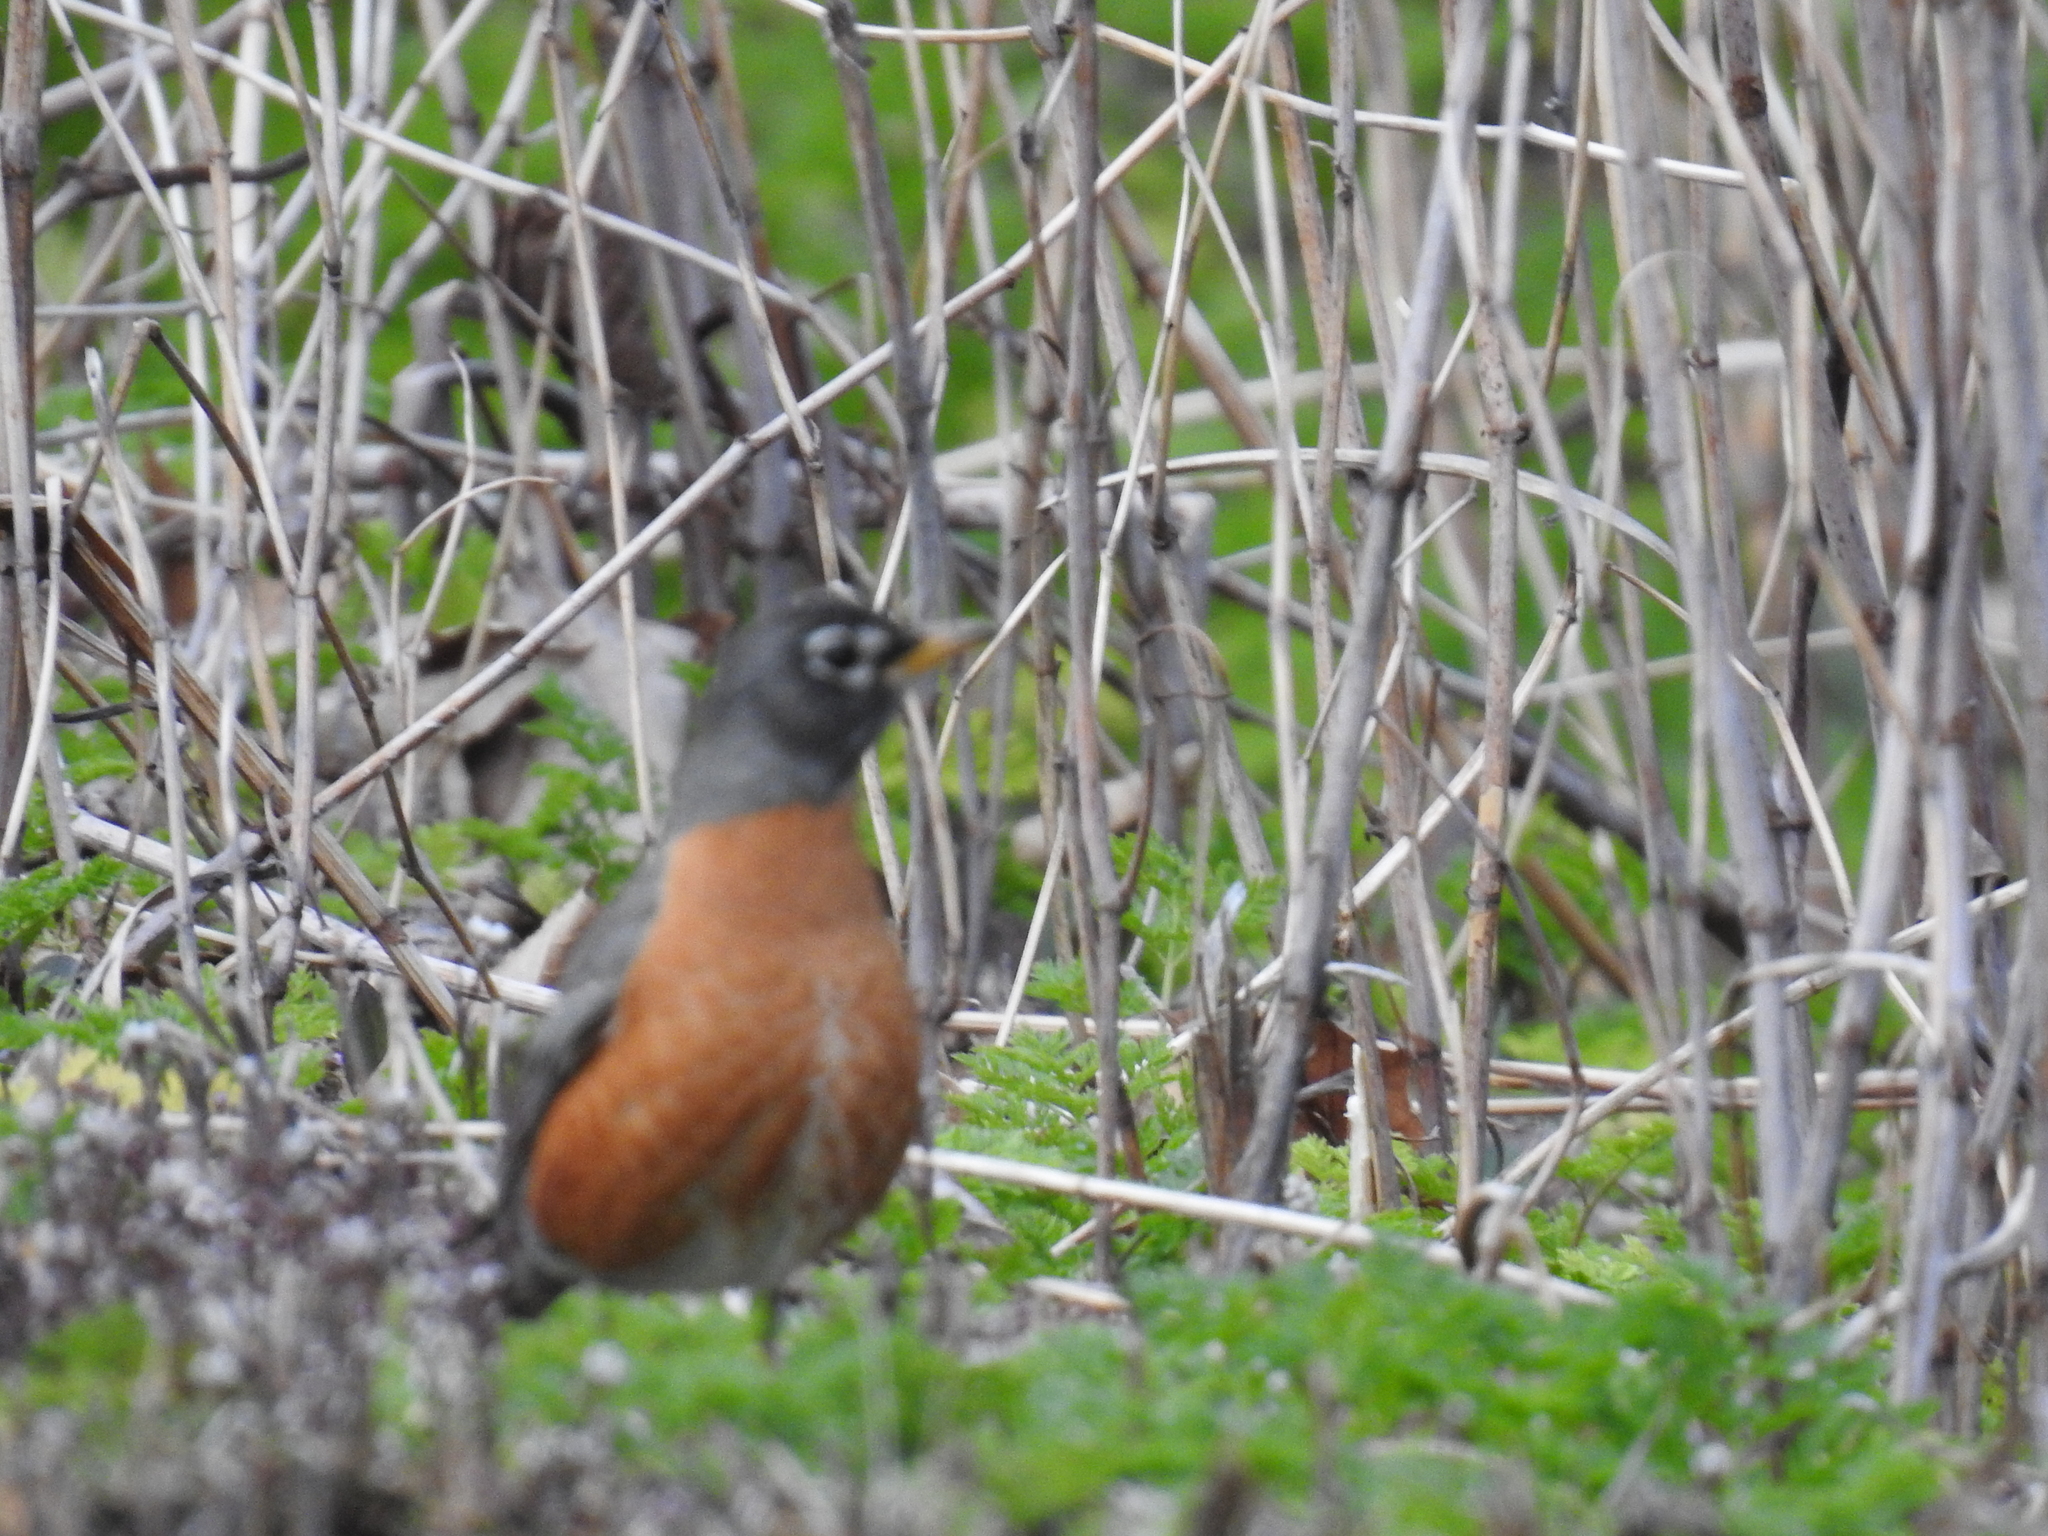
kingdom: Animalia
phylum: Chordata
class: Aves
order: Passeriformes
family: Turdidae
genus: Turdus
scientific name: Turdus migratorius
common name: American robin
